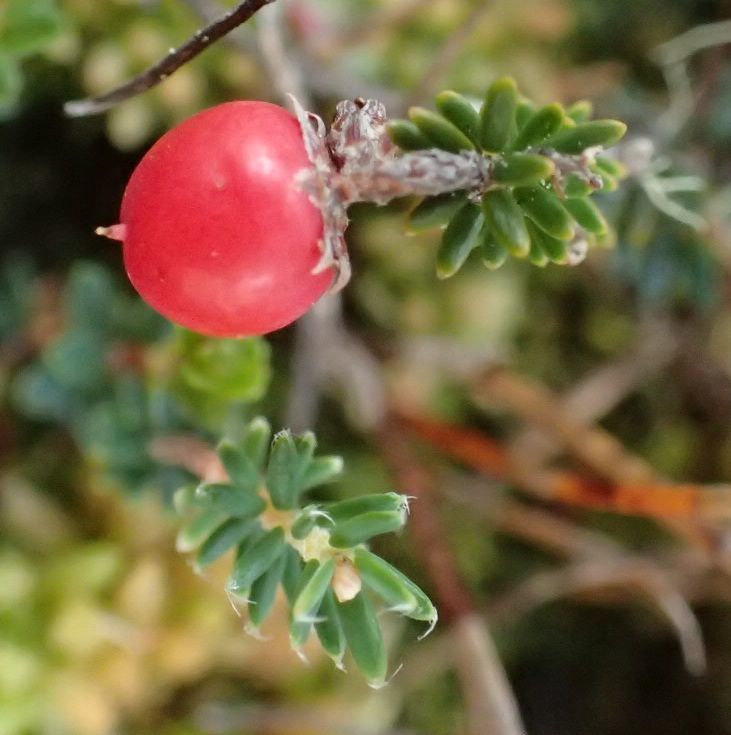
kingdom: Plantae
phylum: Tracheophyta
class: Magnoliopsida
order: Ericales
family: Ericaceae
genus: Androstoma
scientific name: Androstoma empetrifolia
